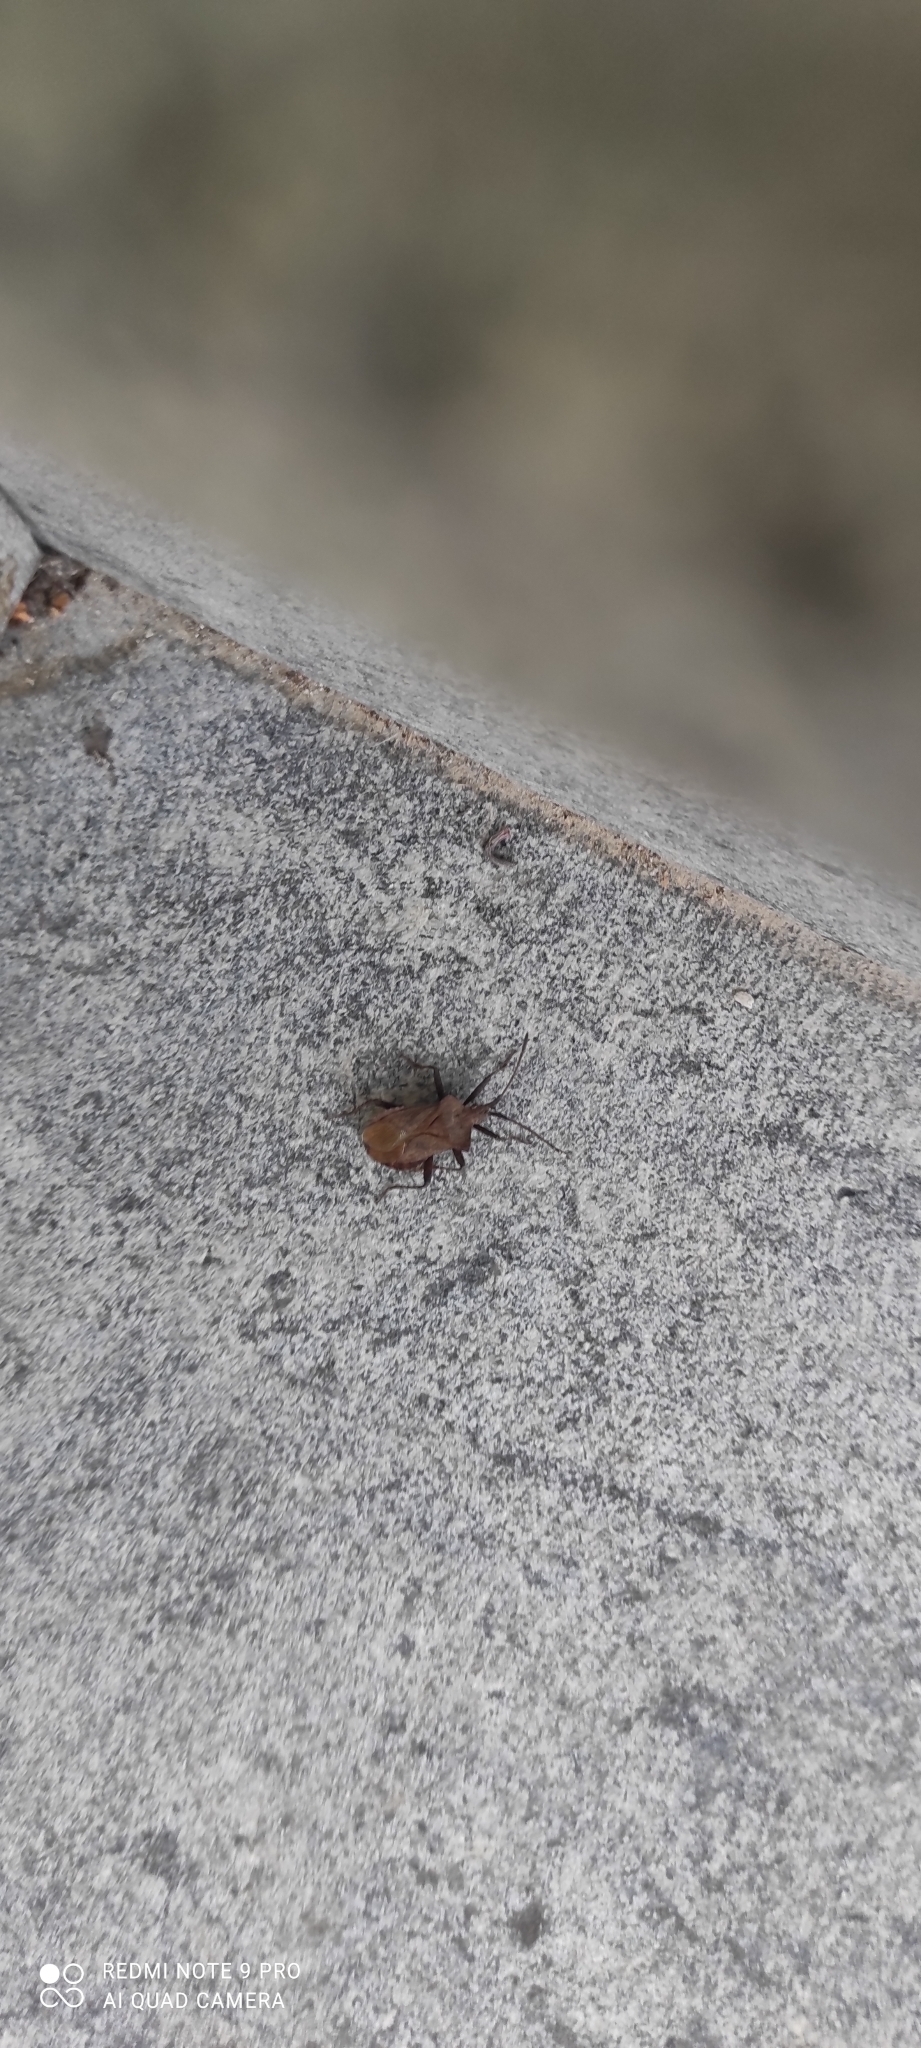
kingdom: Animalia
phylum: Arthropoda
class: Insecta
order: Hemiptera
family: Coreidae
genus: Coreus
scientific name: Coreus marginatus
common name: Dock bug
